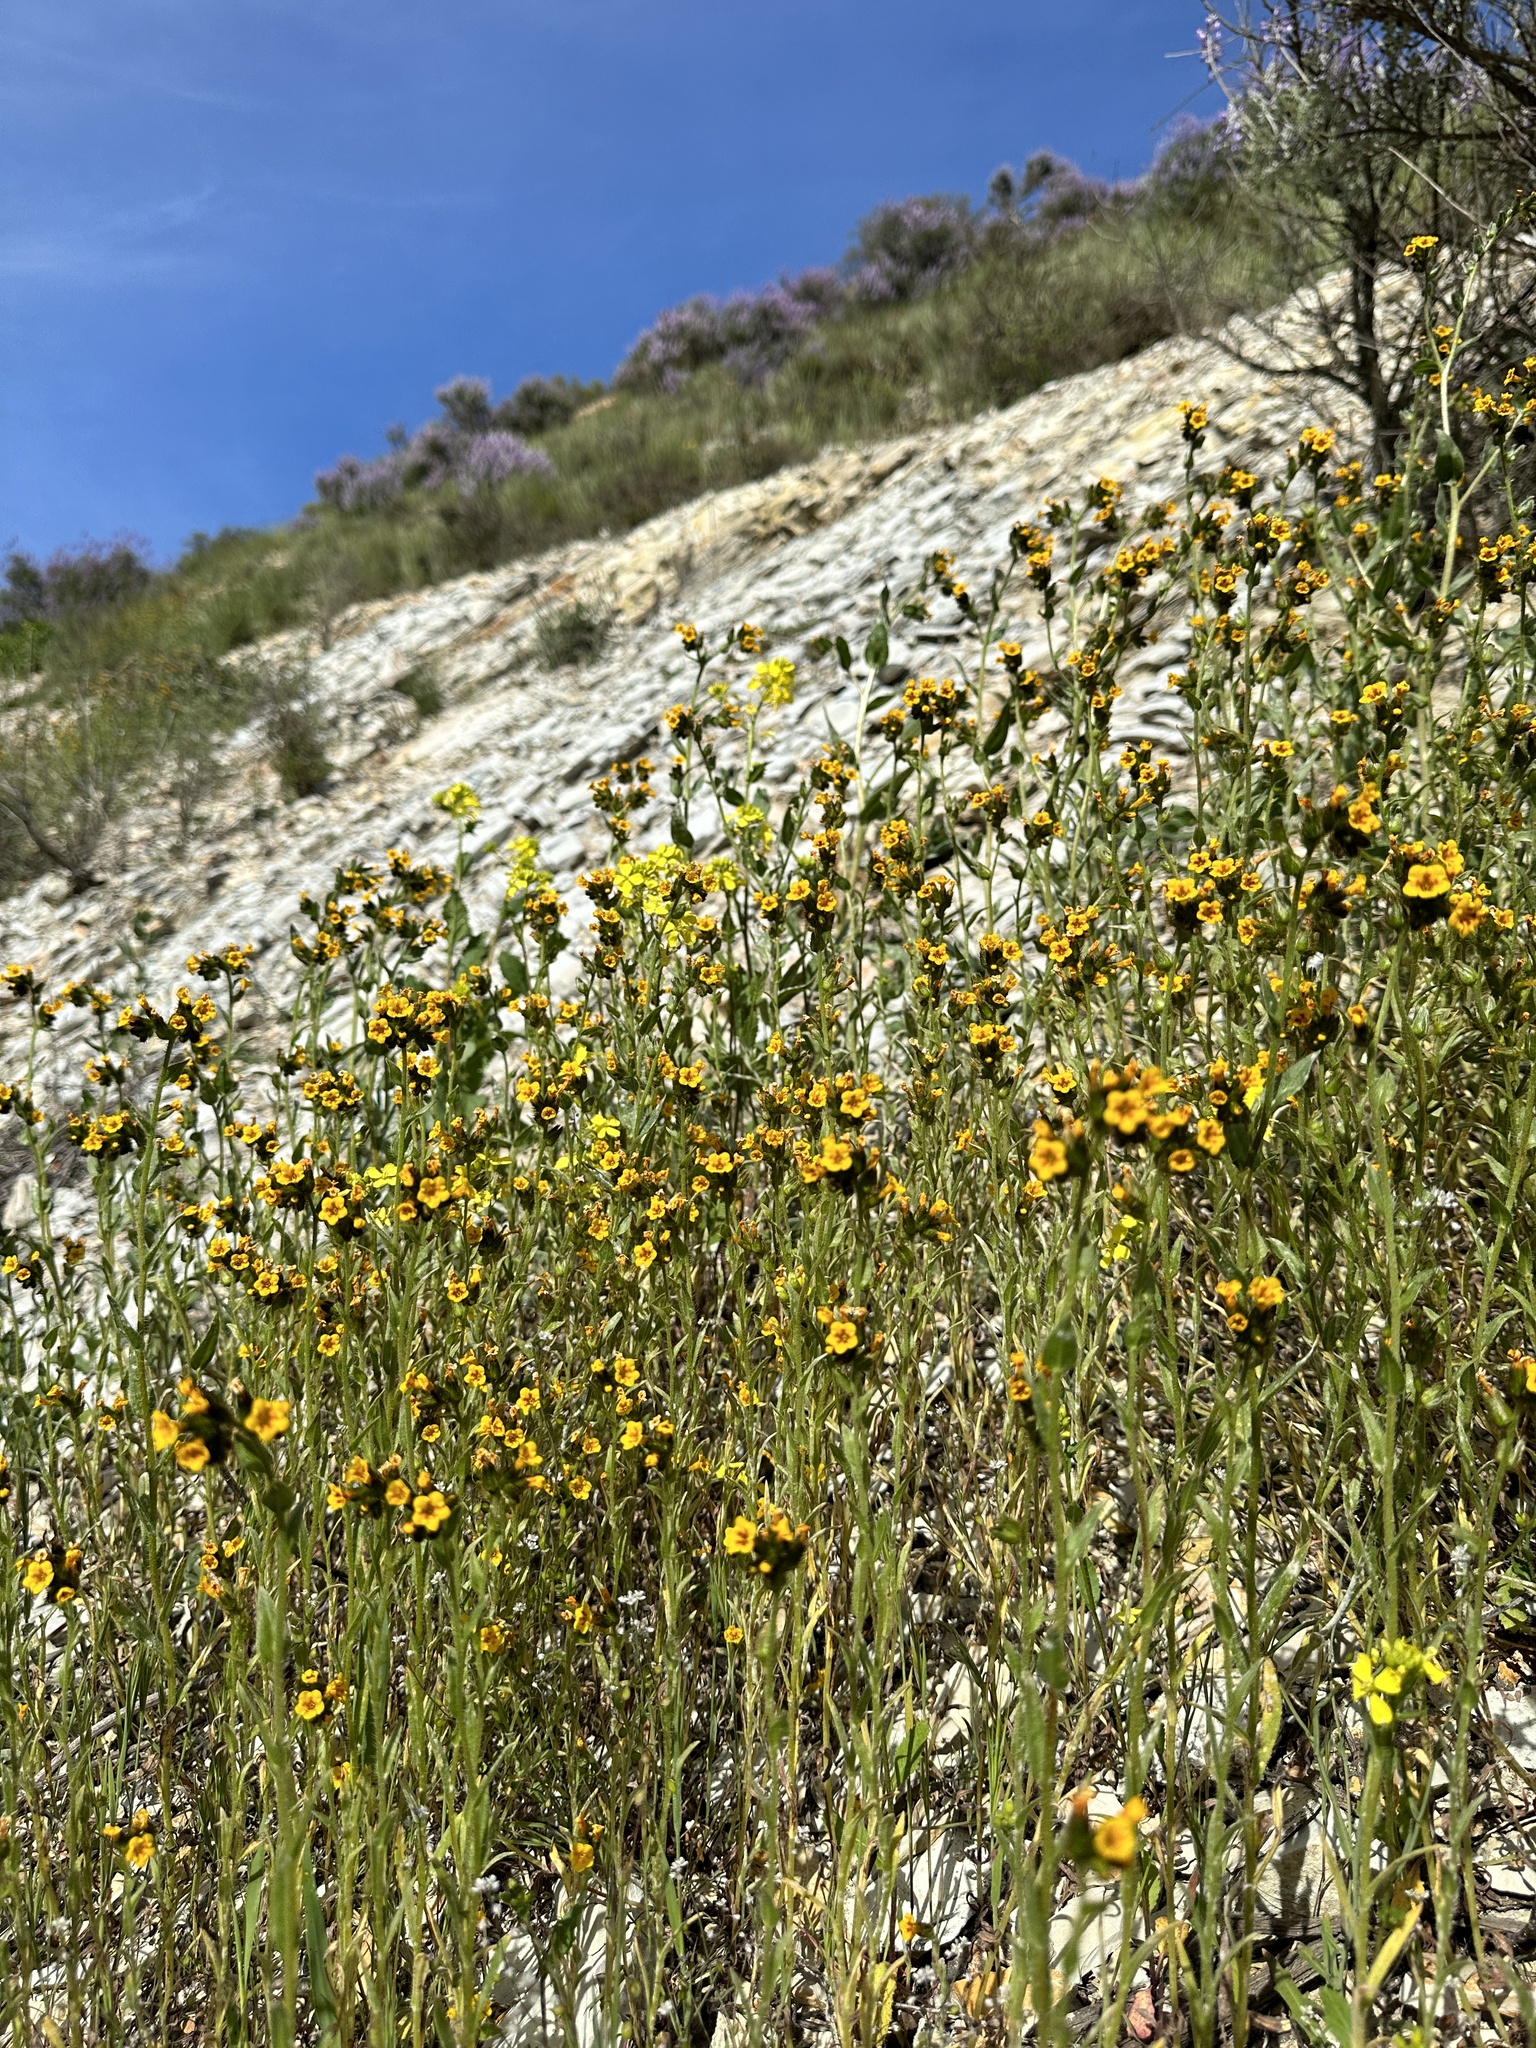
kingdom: Plantae
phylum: Tracheophyta
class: Magnoliopsida
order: Boraginales
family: Boraginaceae
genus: Amsinckia
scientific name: Amsinckia tessellata
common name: Tessellate fiddleneck
